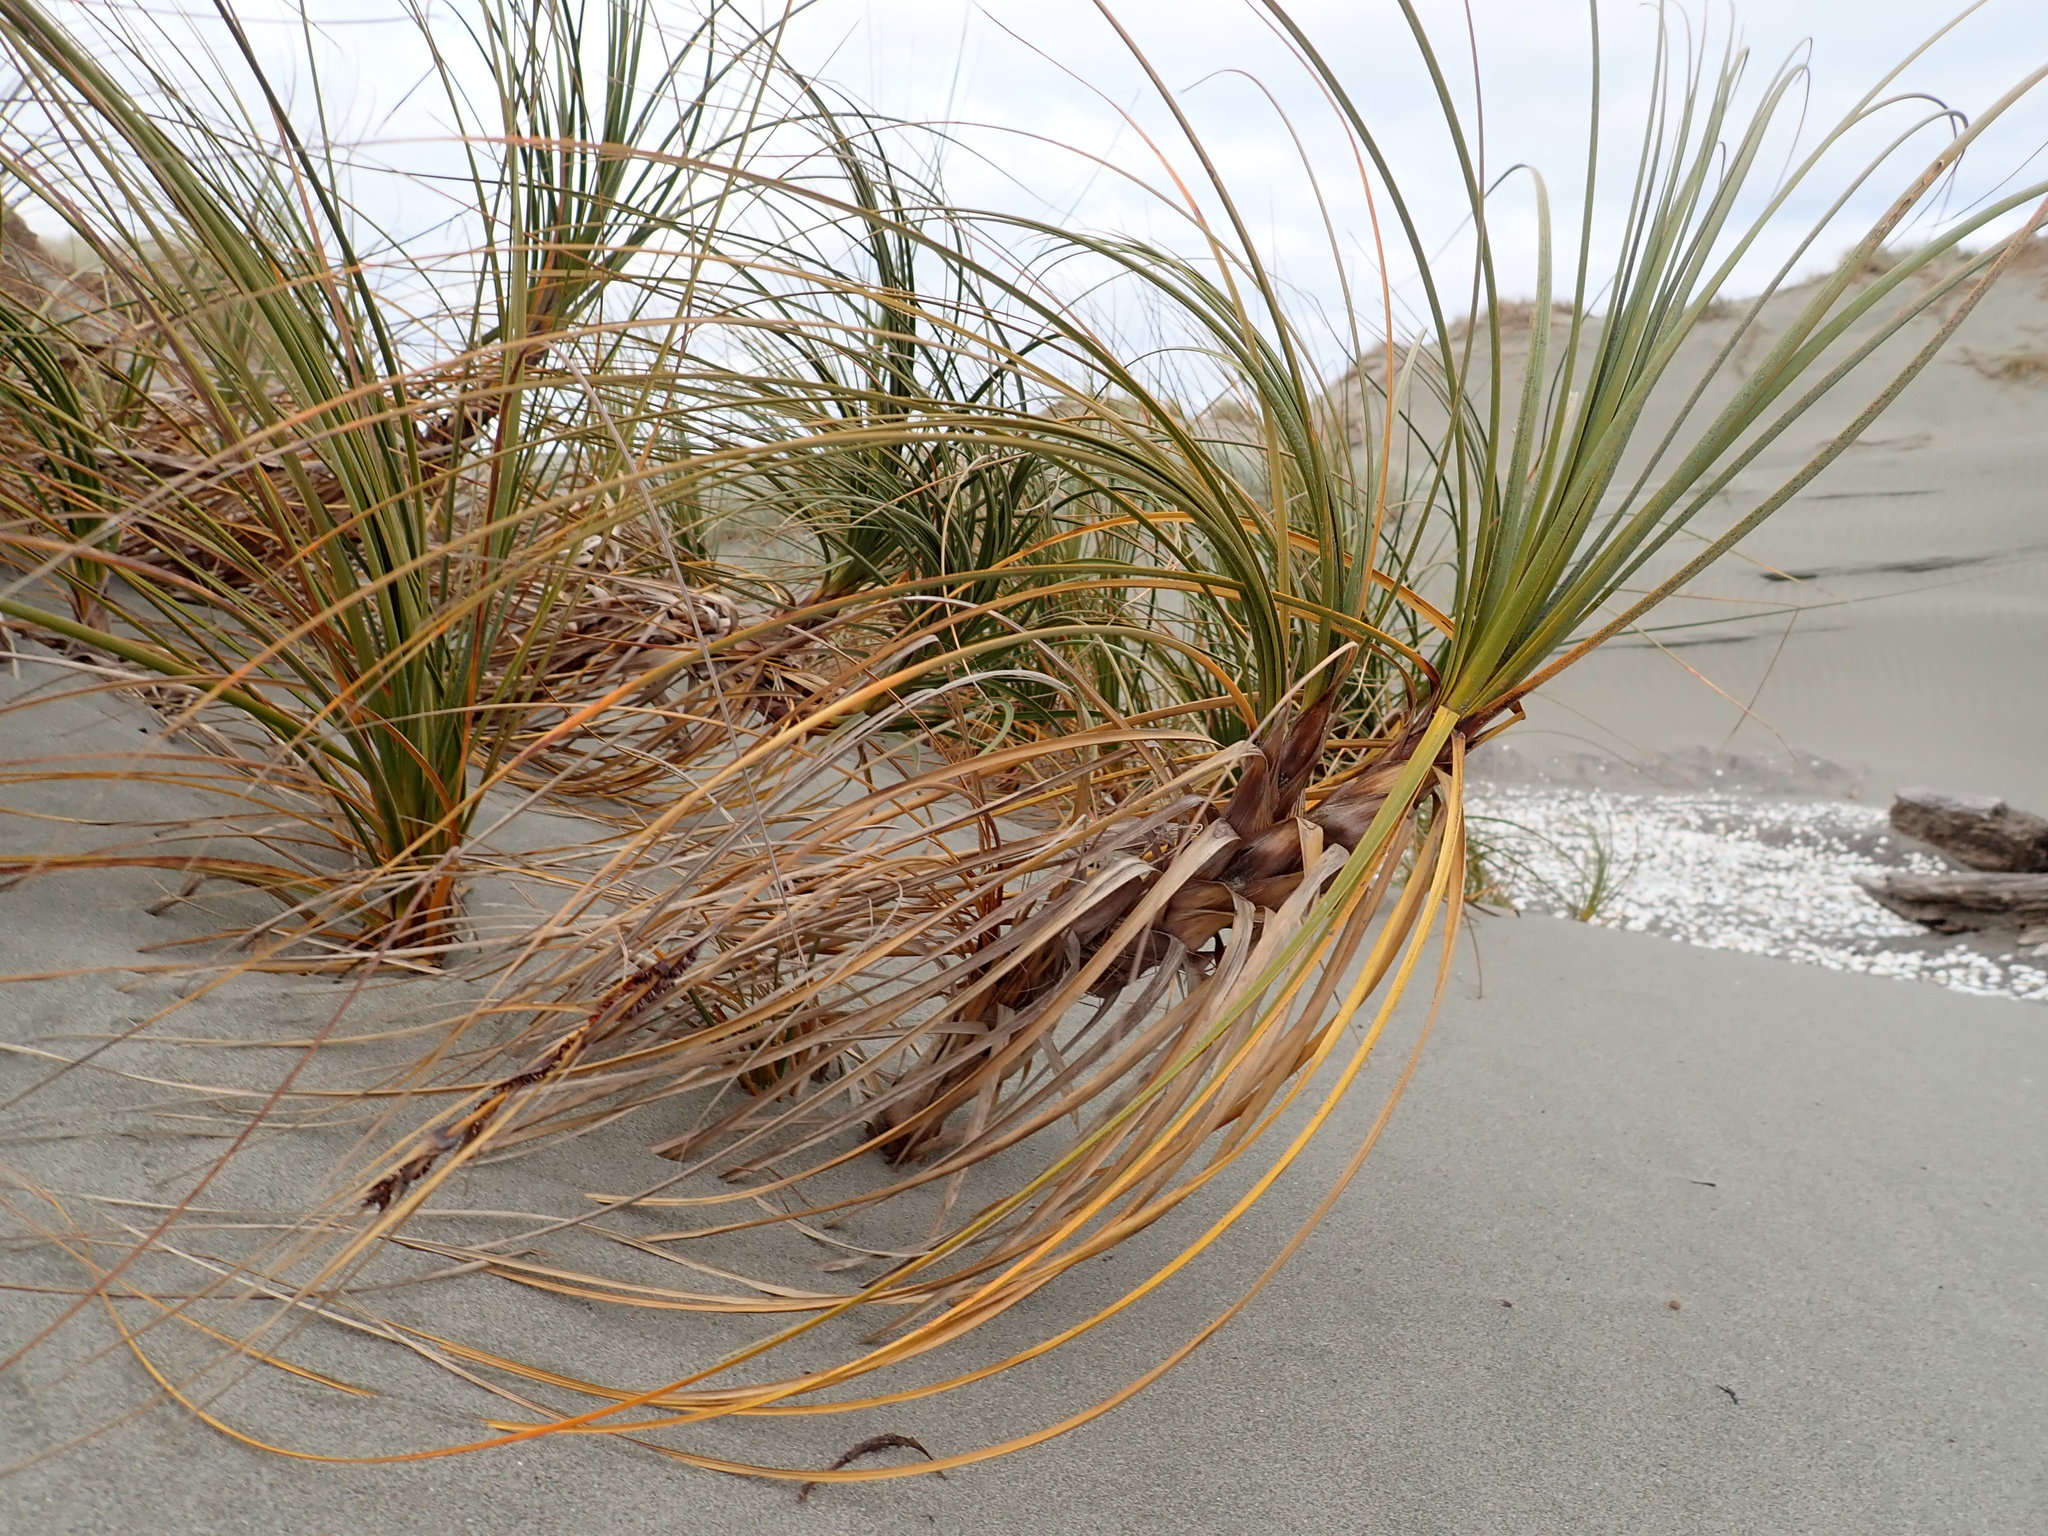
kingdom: Plantae
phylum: Tracheophyta
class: Liliopsida
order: Poales
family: Cyperaceae
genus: Ficinia
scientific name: Ficinia spiralis
